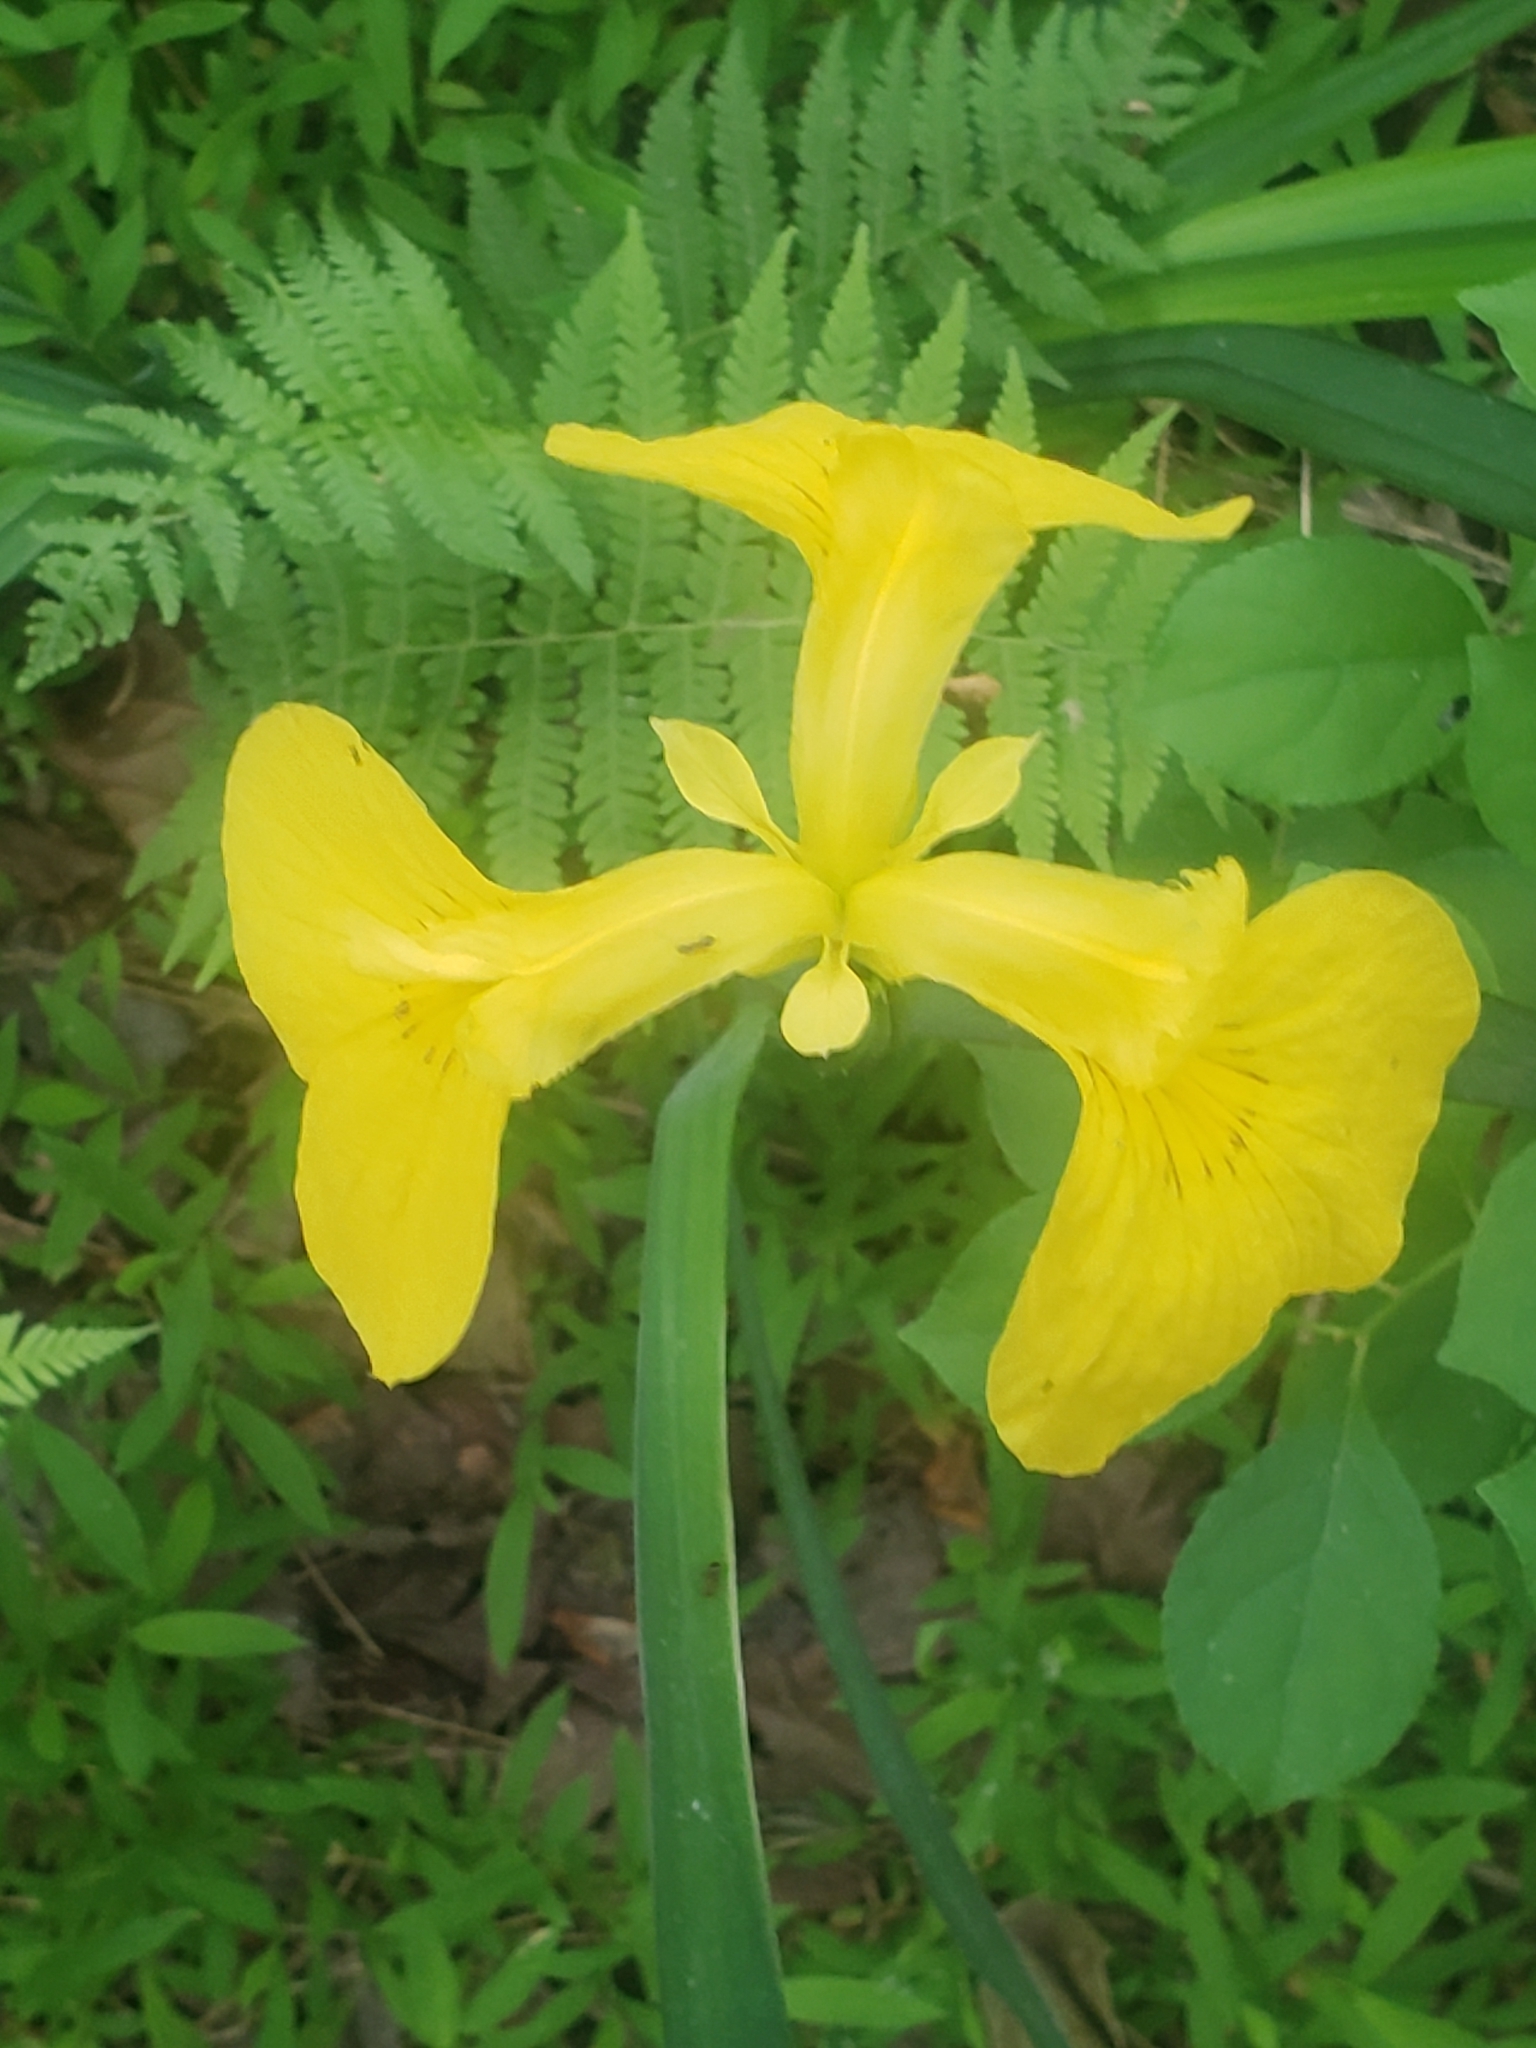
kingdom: Plantae
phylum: Tracheophyta
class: Liliopsida
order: Asparagales
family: Iridaceae
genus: Iris
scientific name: Iris pseudacorus
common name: Yellow flag
